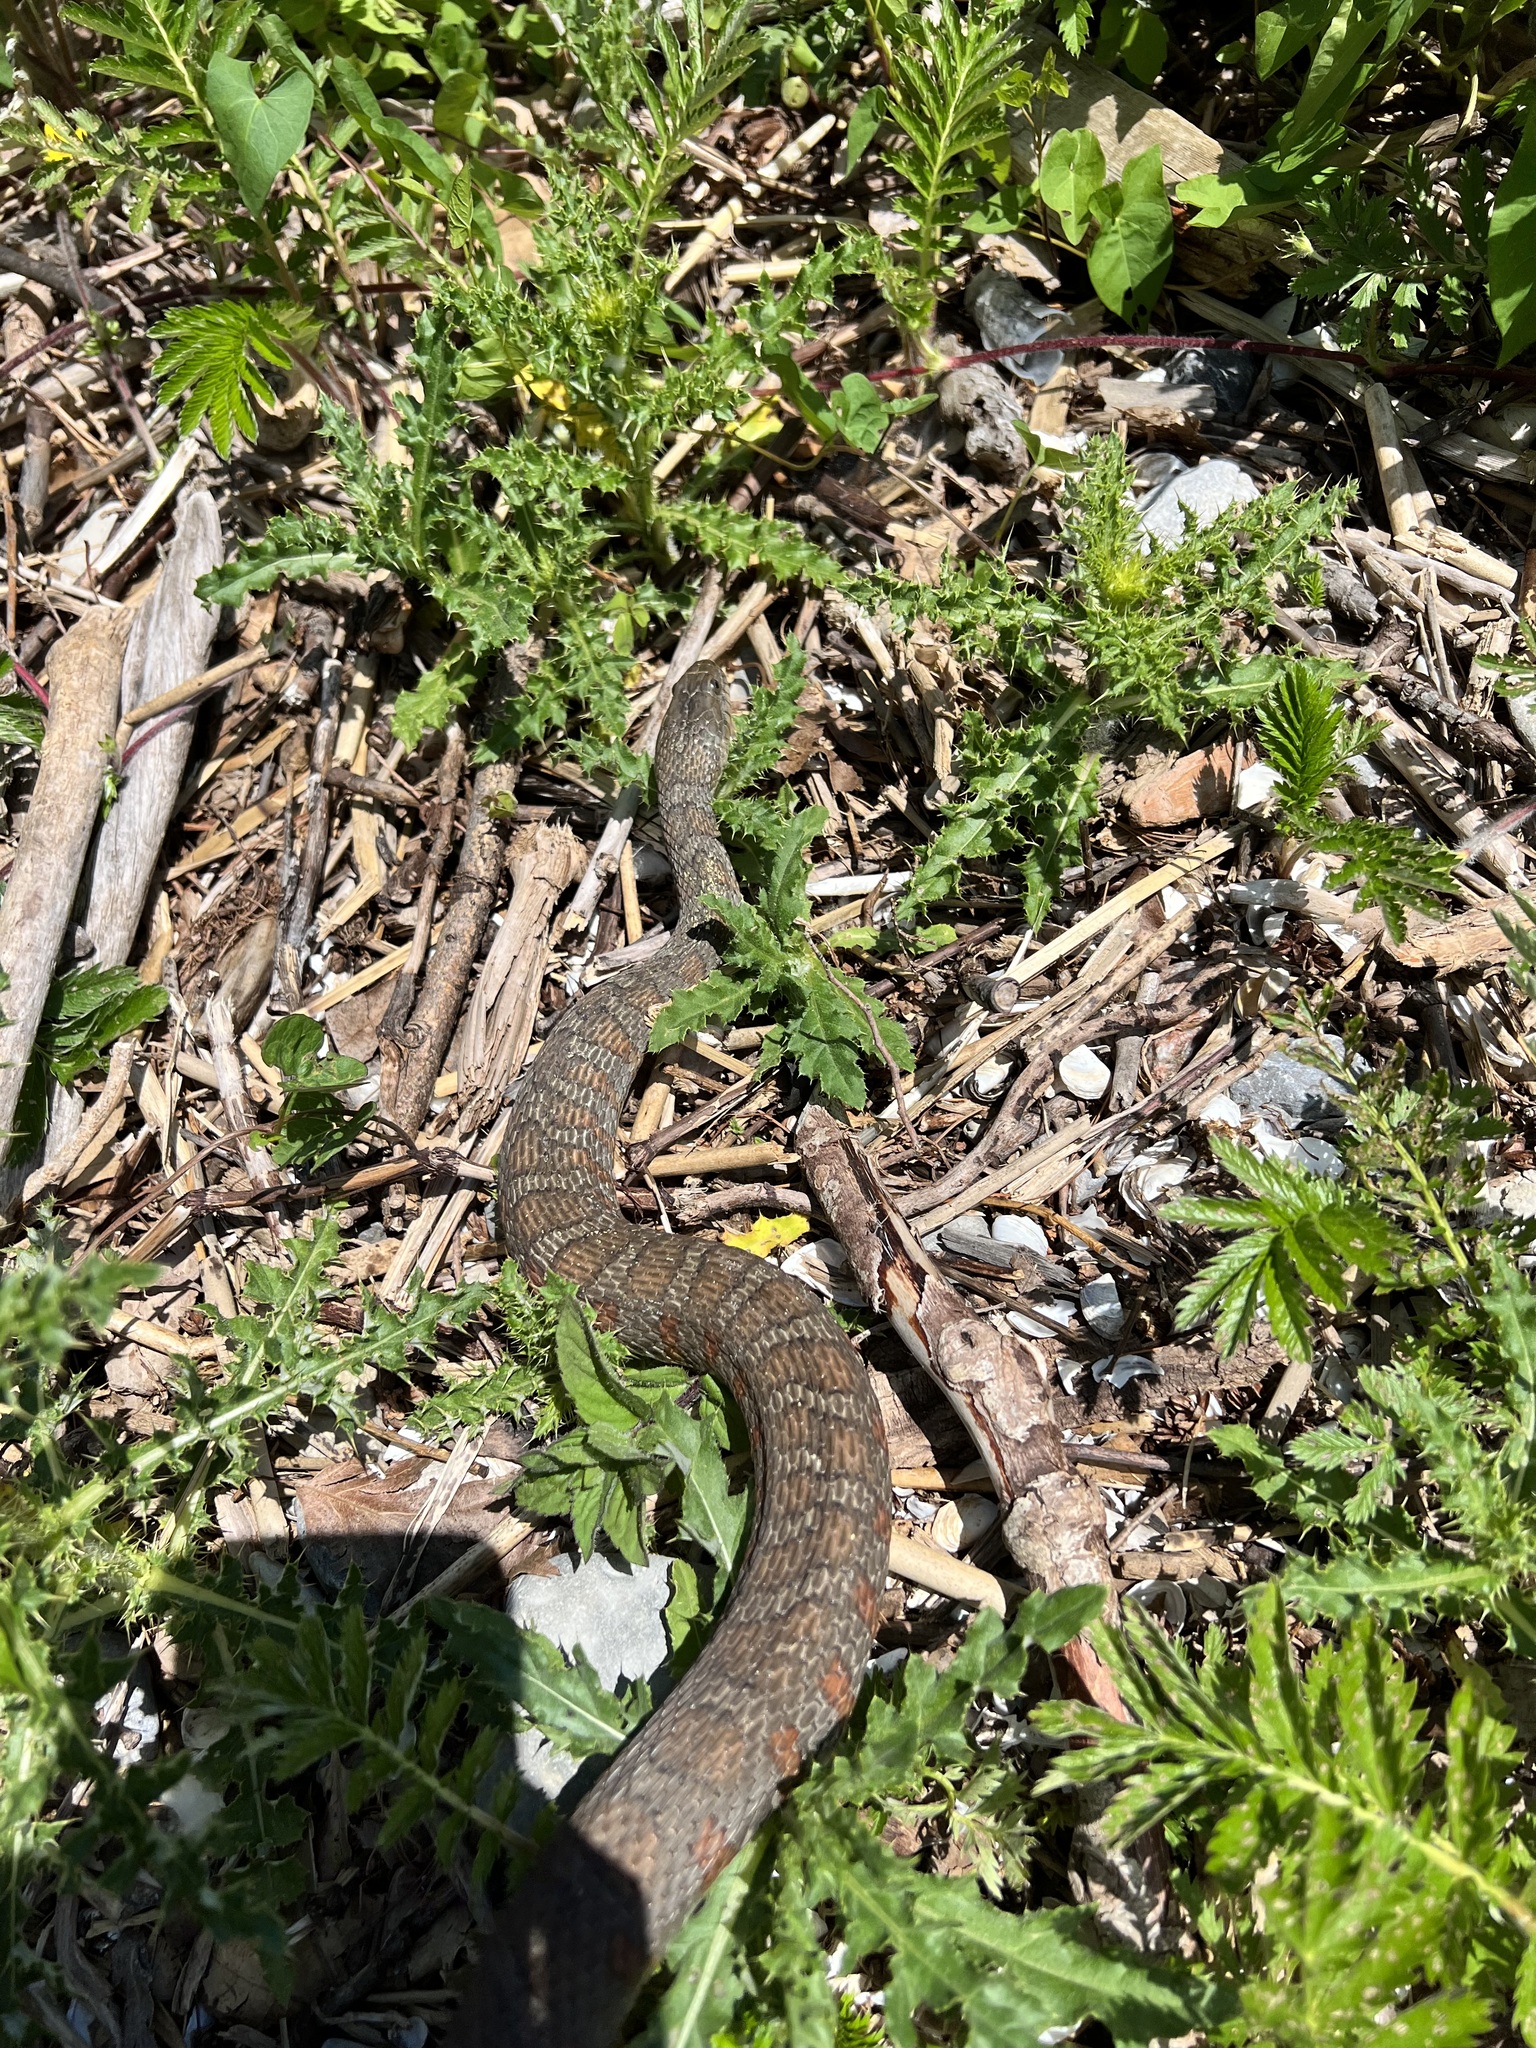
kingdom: Animalia
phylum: Chordata
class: Squamata
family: Colubridae
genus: Nerodia
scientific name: Nerodia sipedon
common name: Northern water snake
